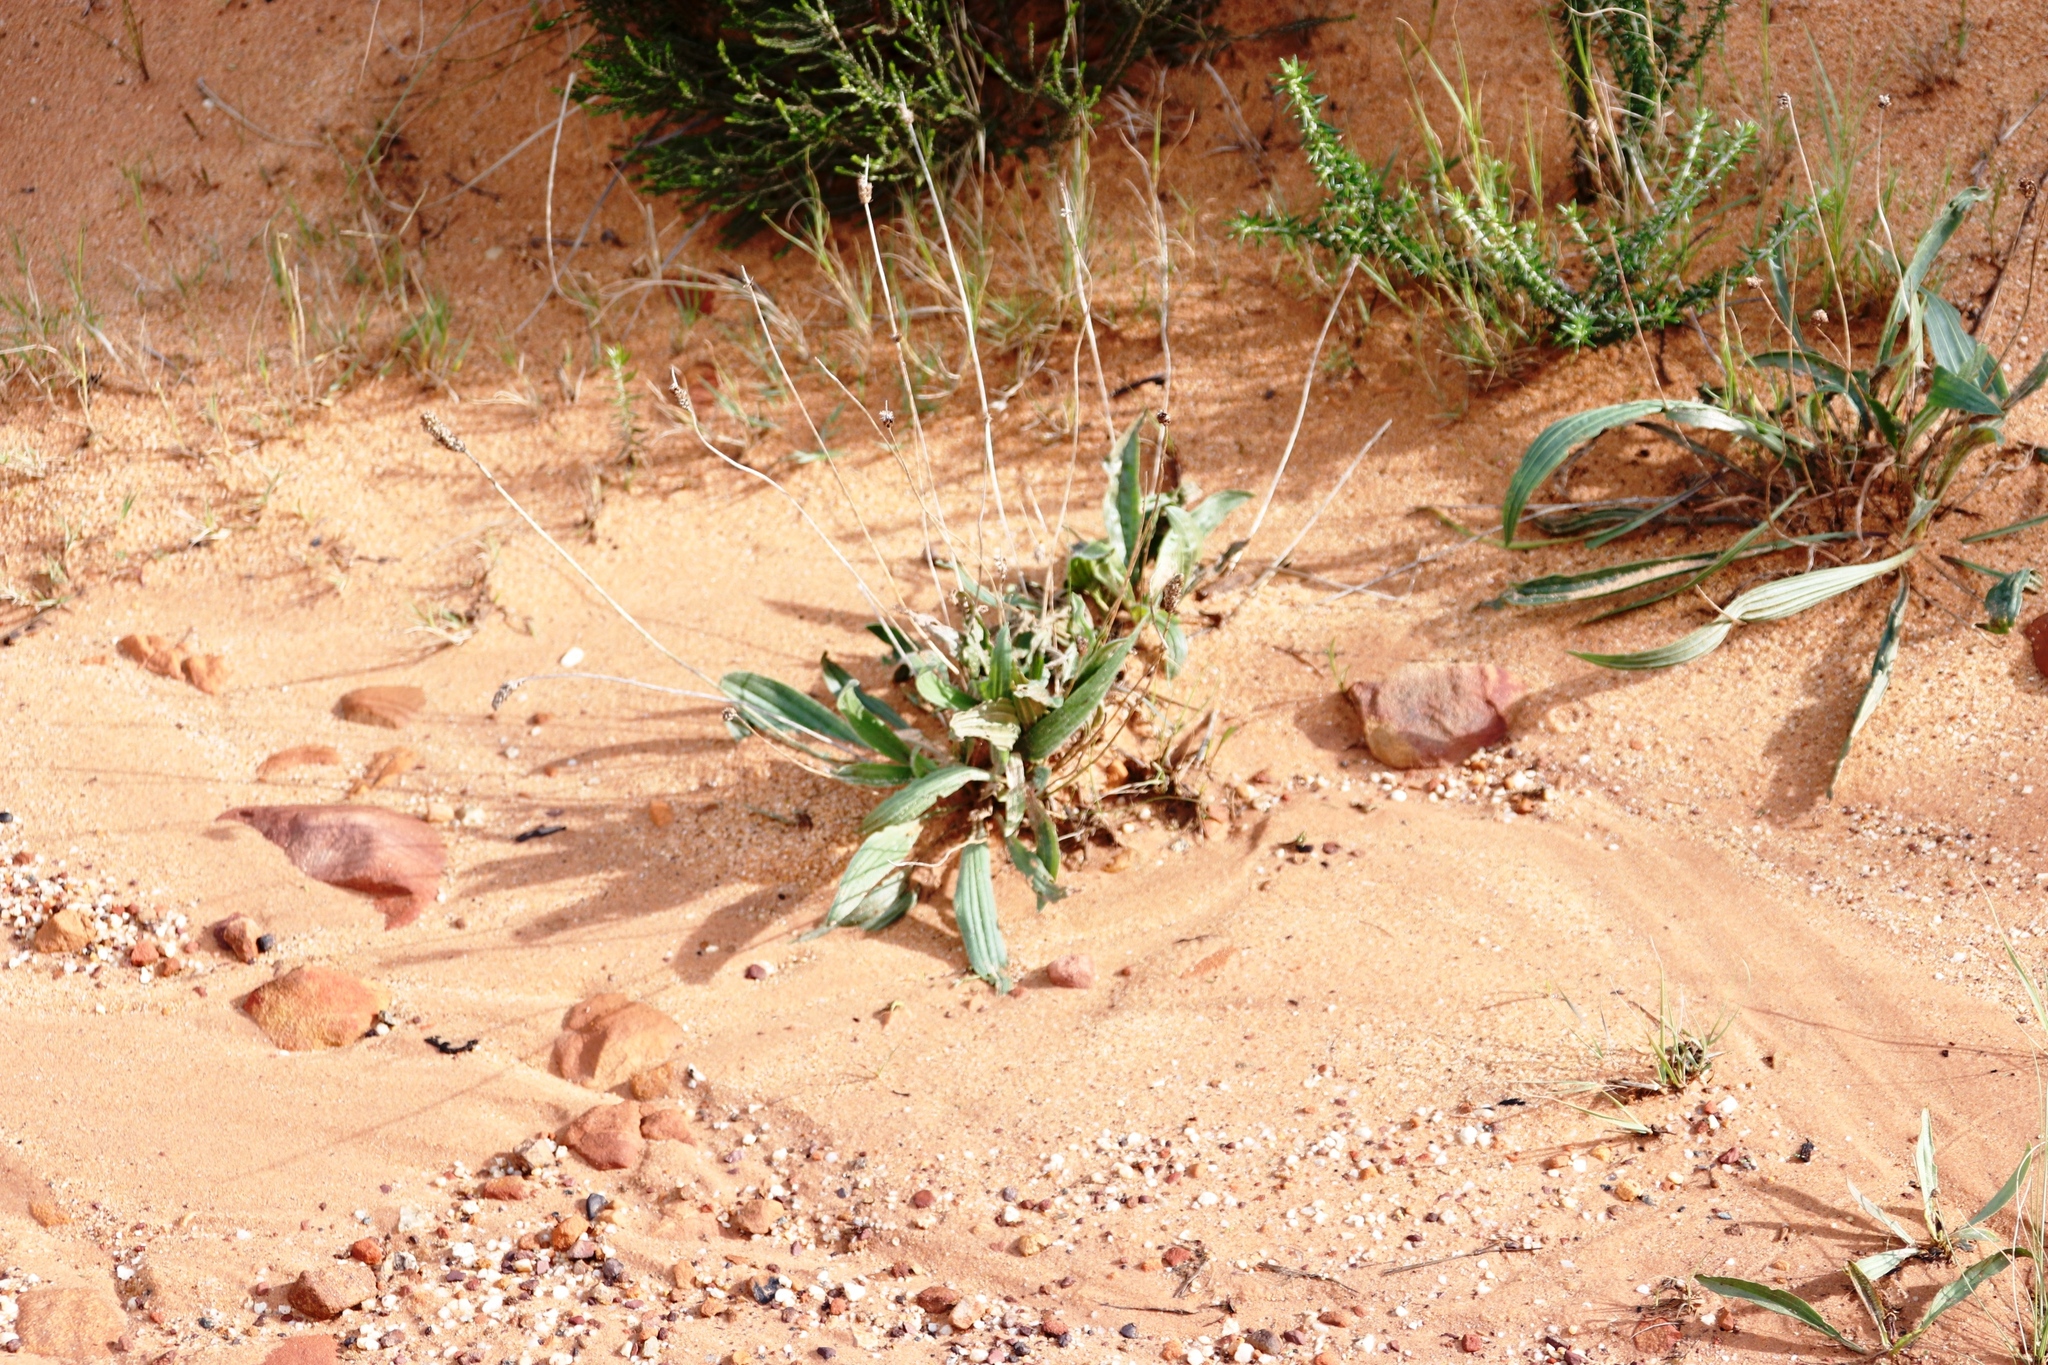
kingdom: Plantae
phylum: Tracheophyta
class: Magnoliopsida
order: Lamiales
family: Plantaginaceae
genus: Plantago
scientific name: Plantago lanceolata
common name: Ribwort plantain
